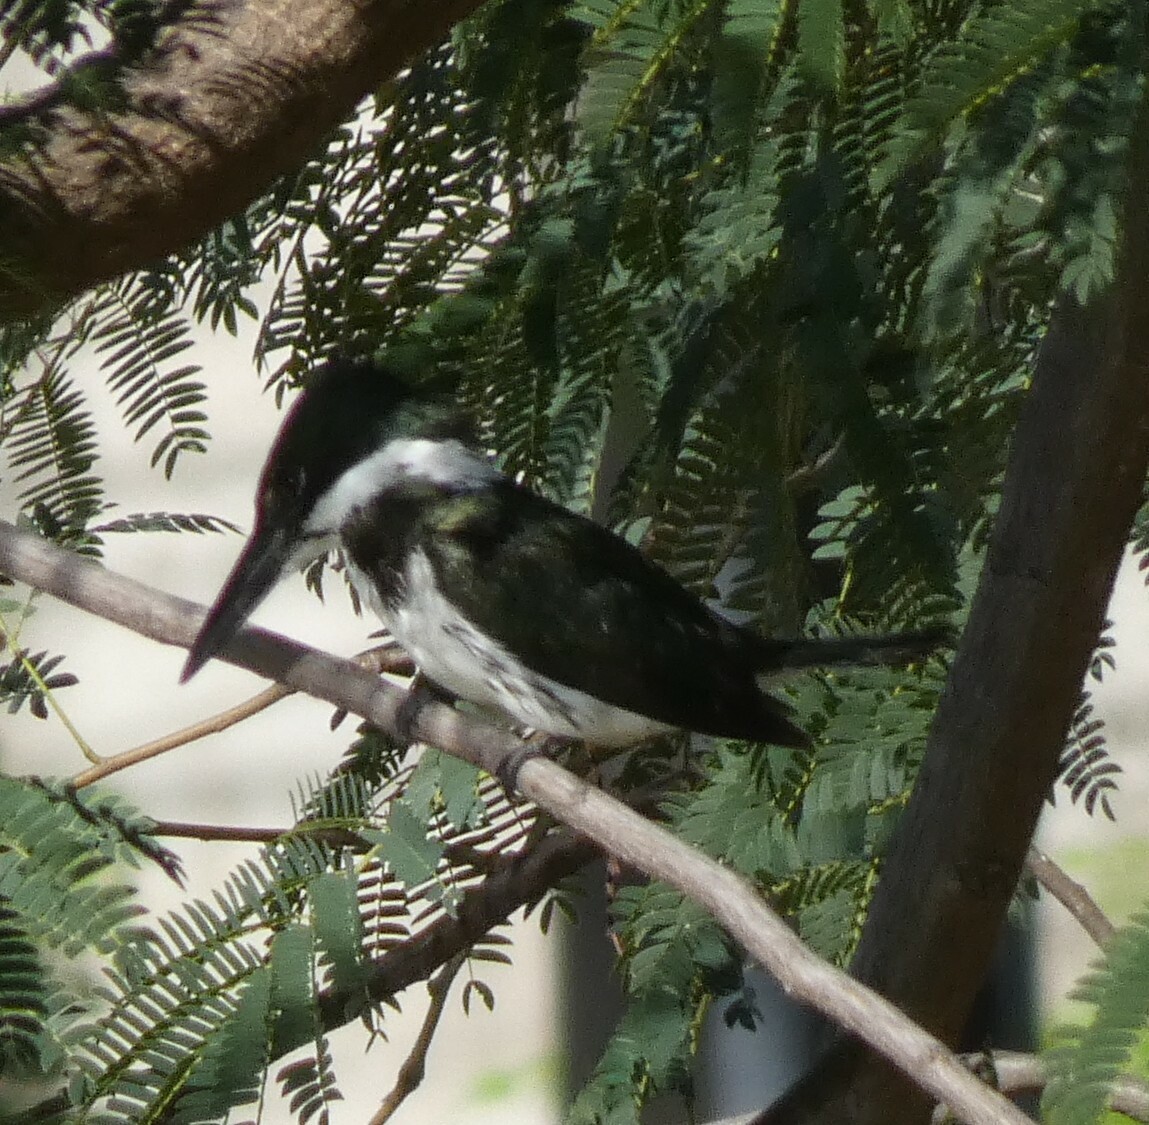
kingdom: Animalia
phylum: Chordata
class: Aves
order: Coraciiformes
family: Alcedinidae
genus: Chloroceryle
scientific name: Chloroceryle amazona
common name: Amazon kingfisher
